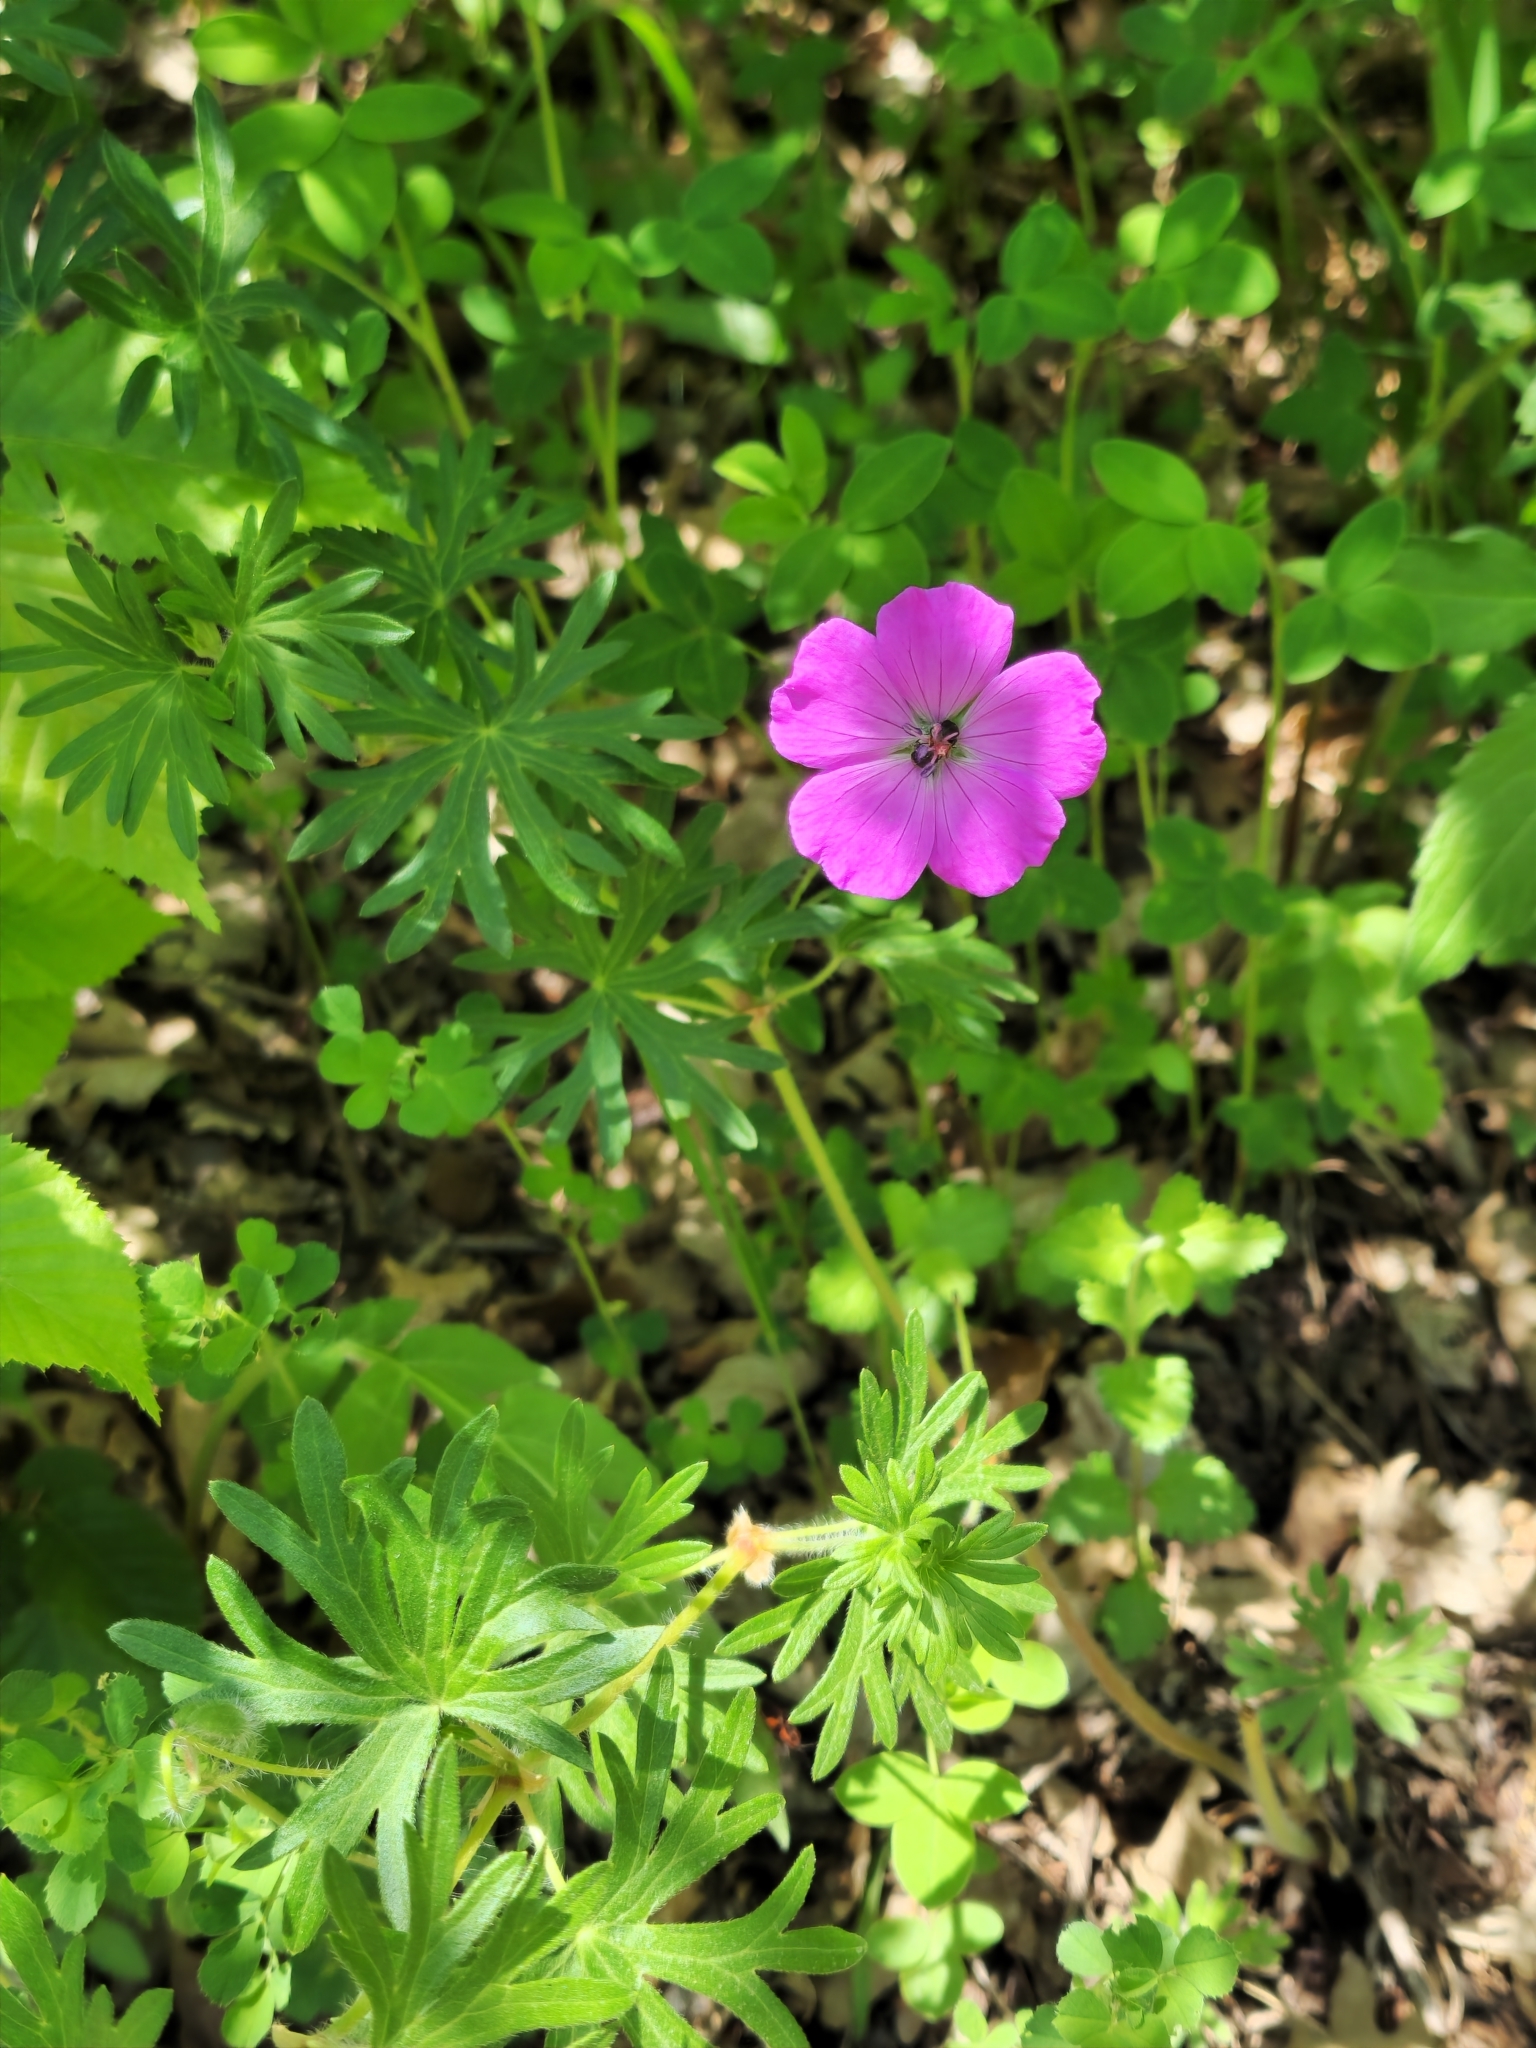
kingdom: Plantae
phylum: Tracheophyta
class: Magnoliopsida
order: Geraniales
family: Geraniaceae
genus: Geranium
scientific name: Geranium sanguineum
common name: Bloody crane's-bill
